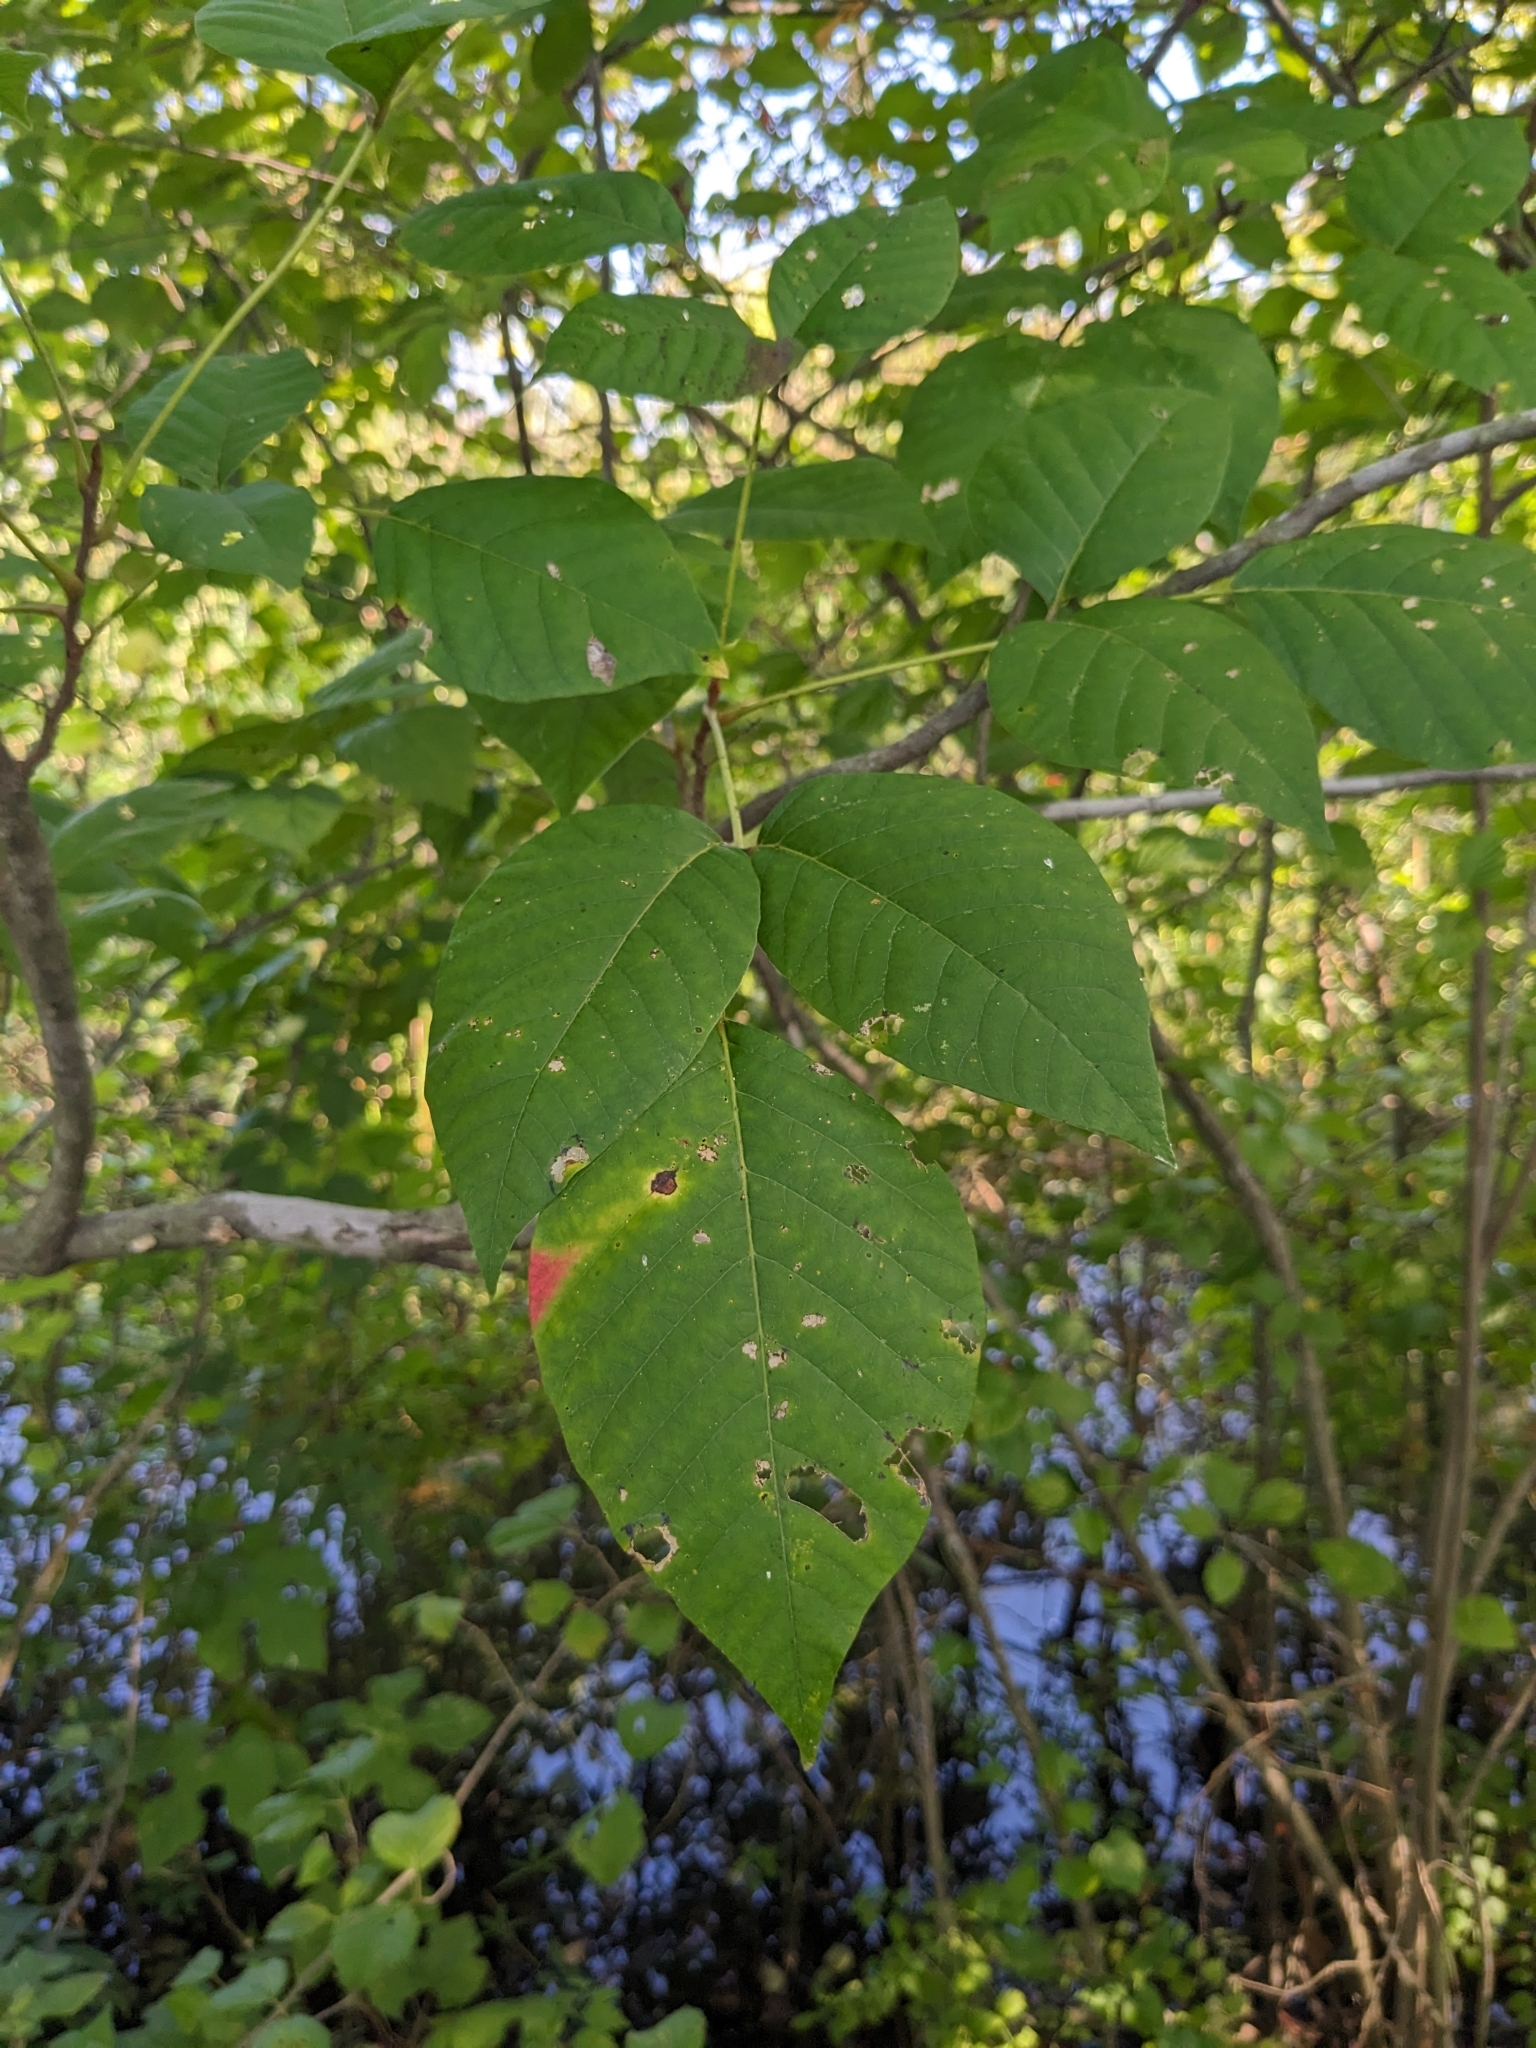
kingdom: Plantae
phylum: Tracheophyta
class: Magnoliopsida
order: Sapindales
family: Anacardiaceae
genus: Toxicodendron
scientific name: Toxicodendron radicans
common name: Poison ivy
